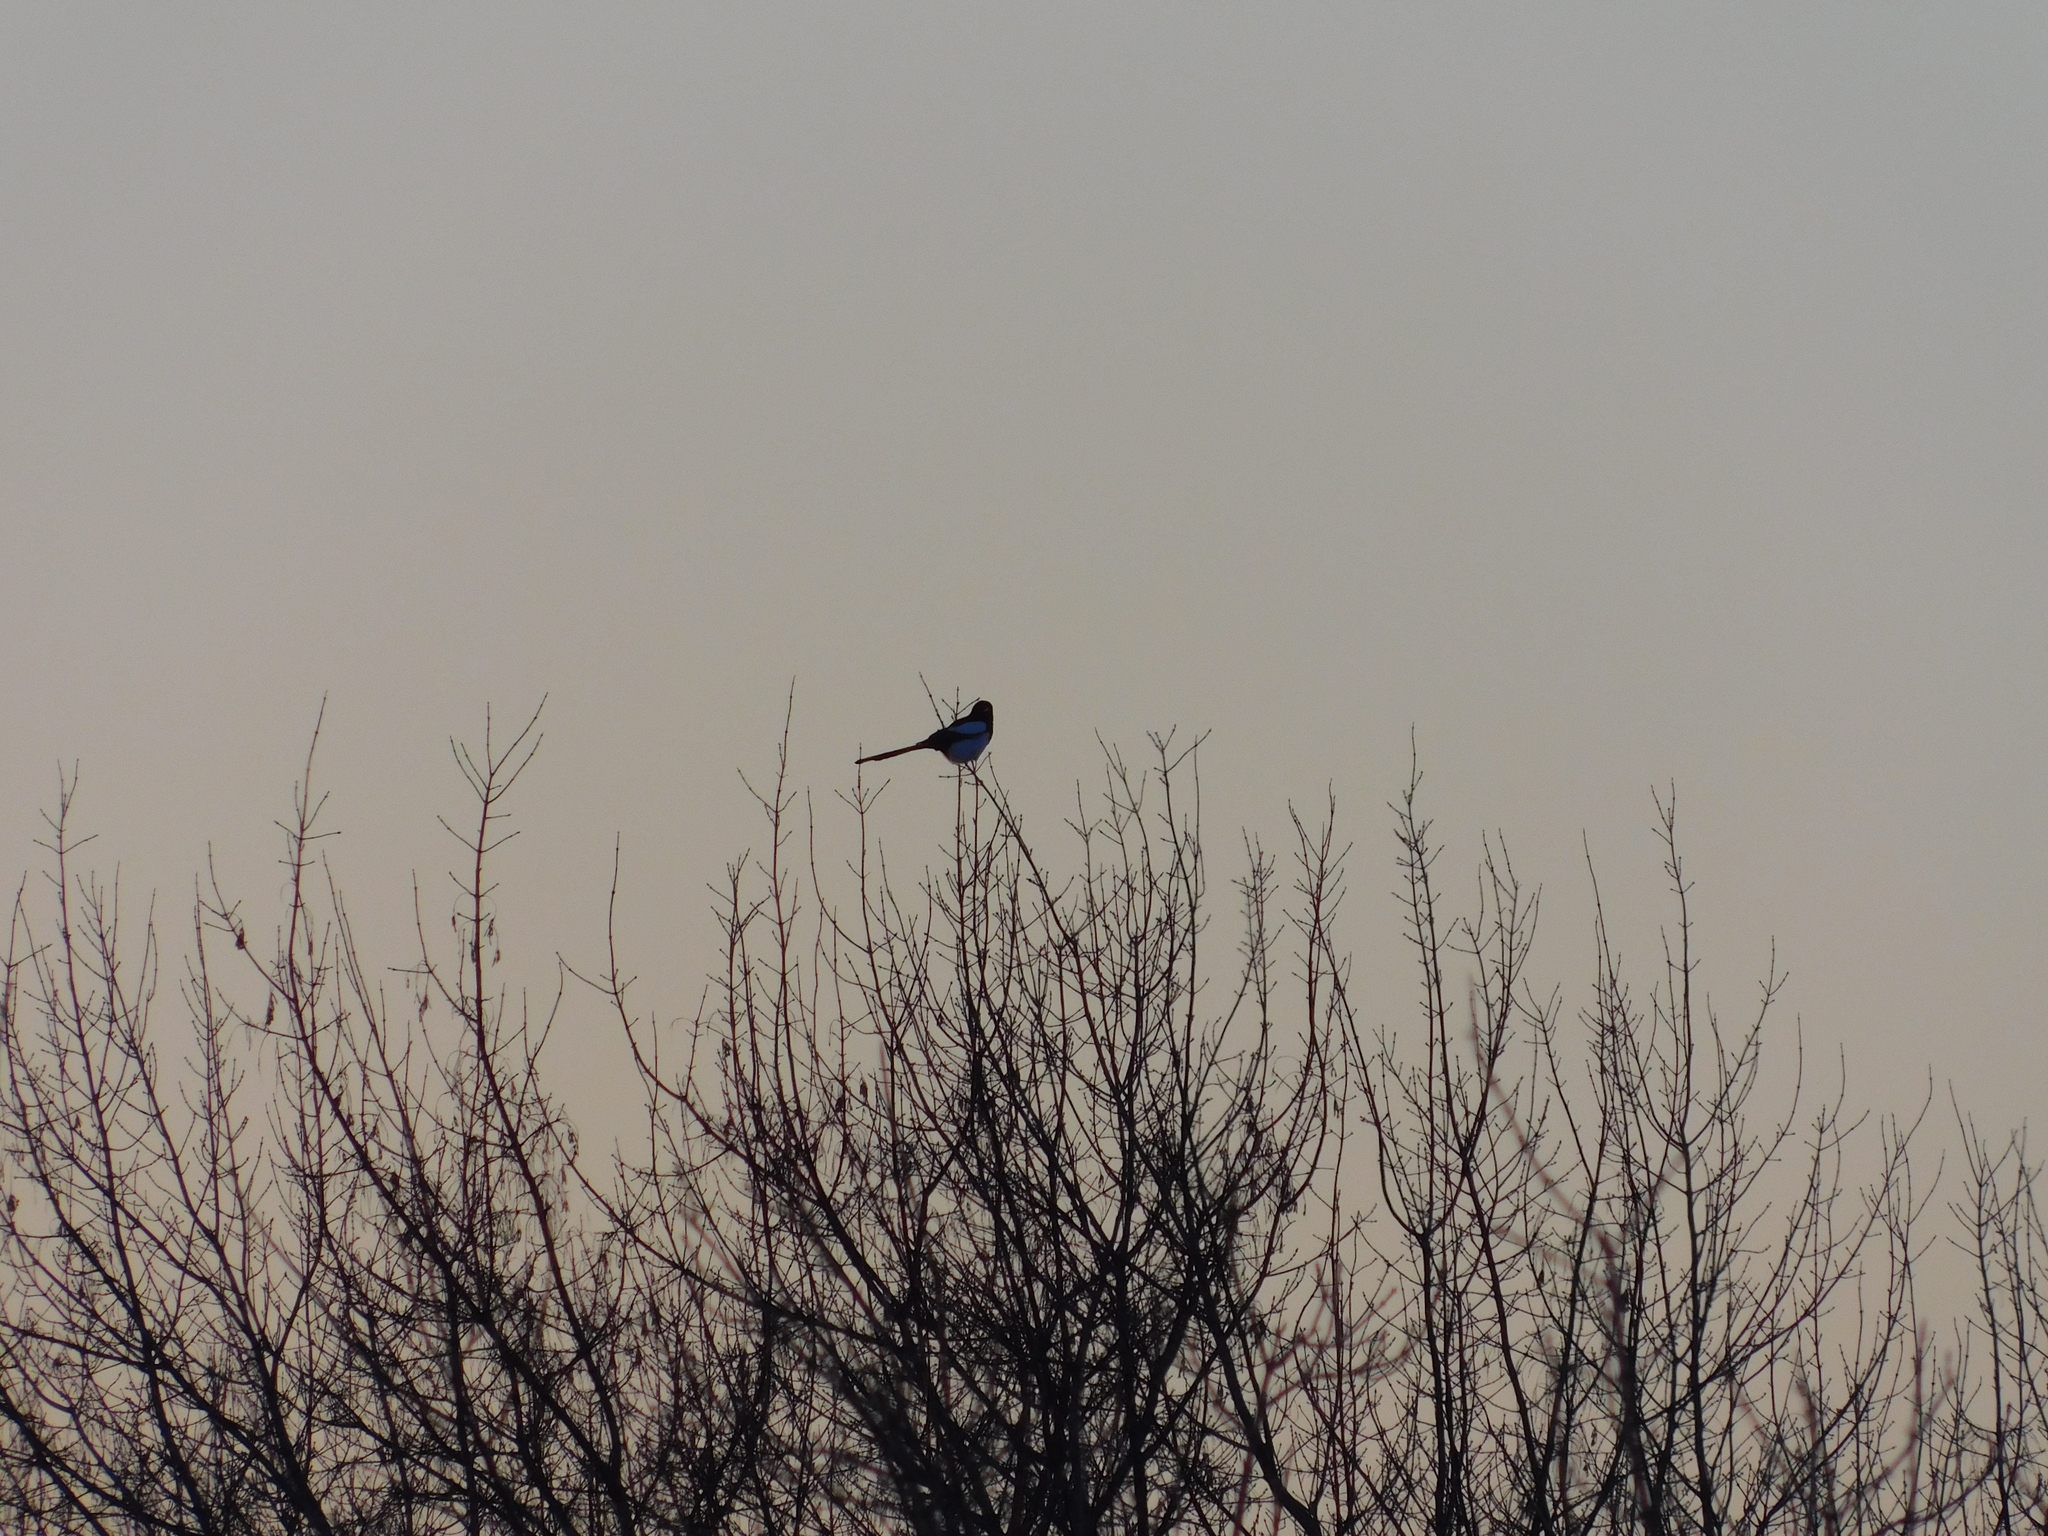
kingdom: Animalia
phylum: Chordata
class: Aves
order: Passeriformes
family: Corvidae
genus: Pica
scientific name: Pica pica
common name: Eurasian magpie
